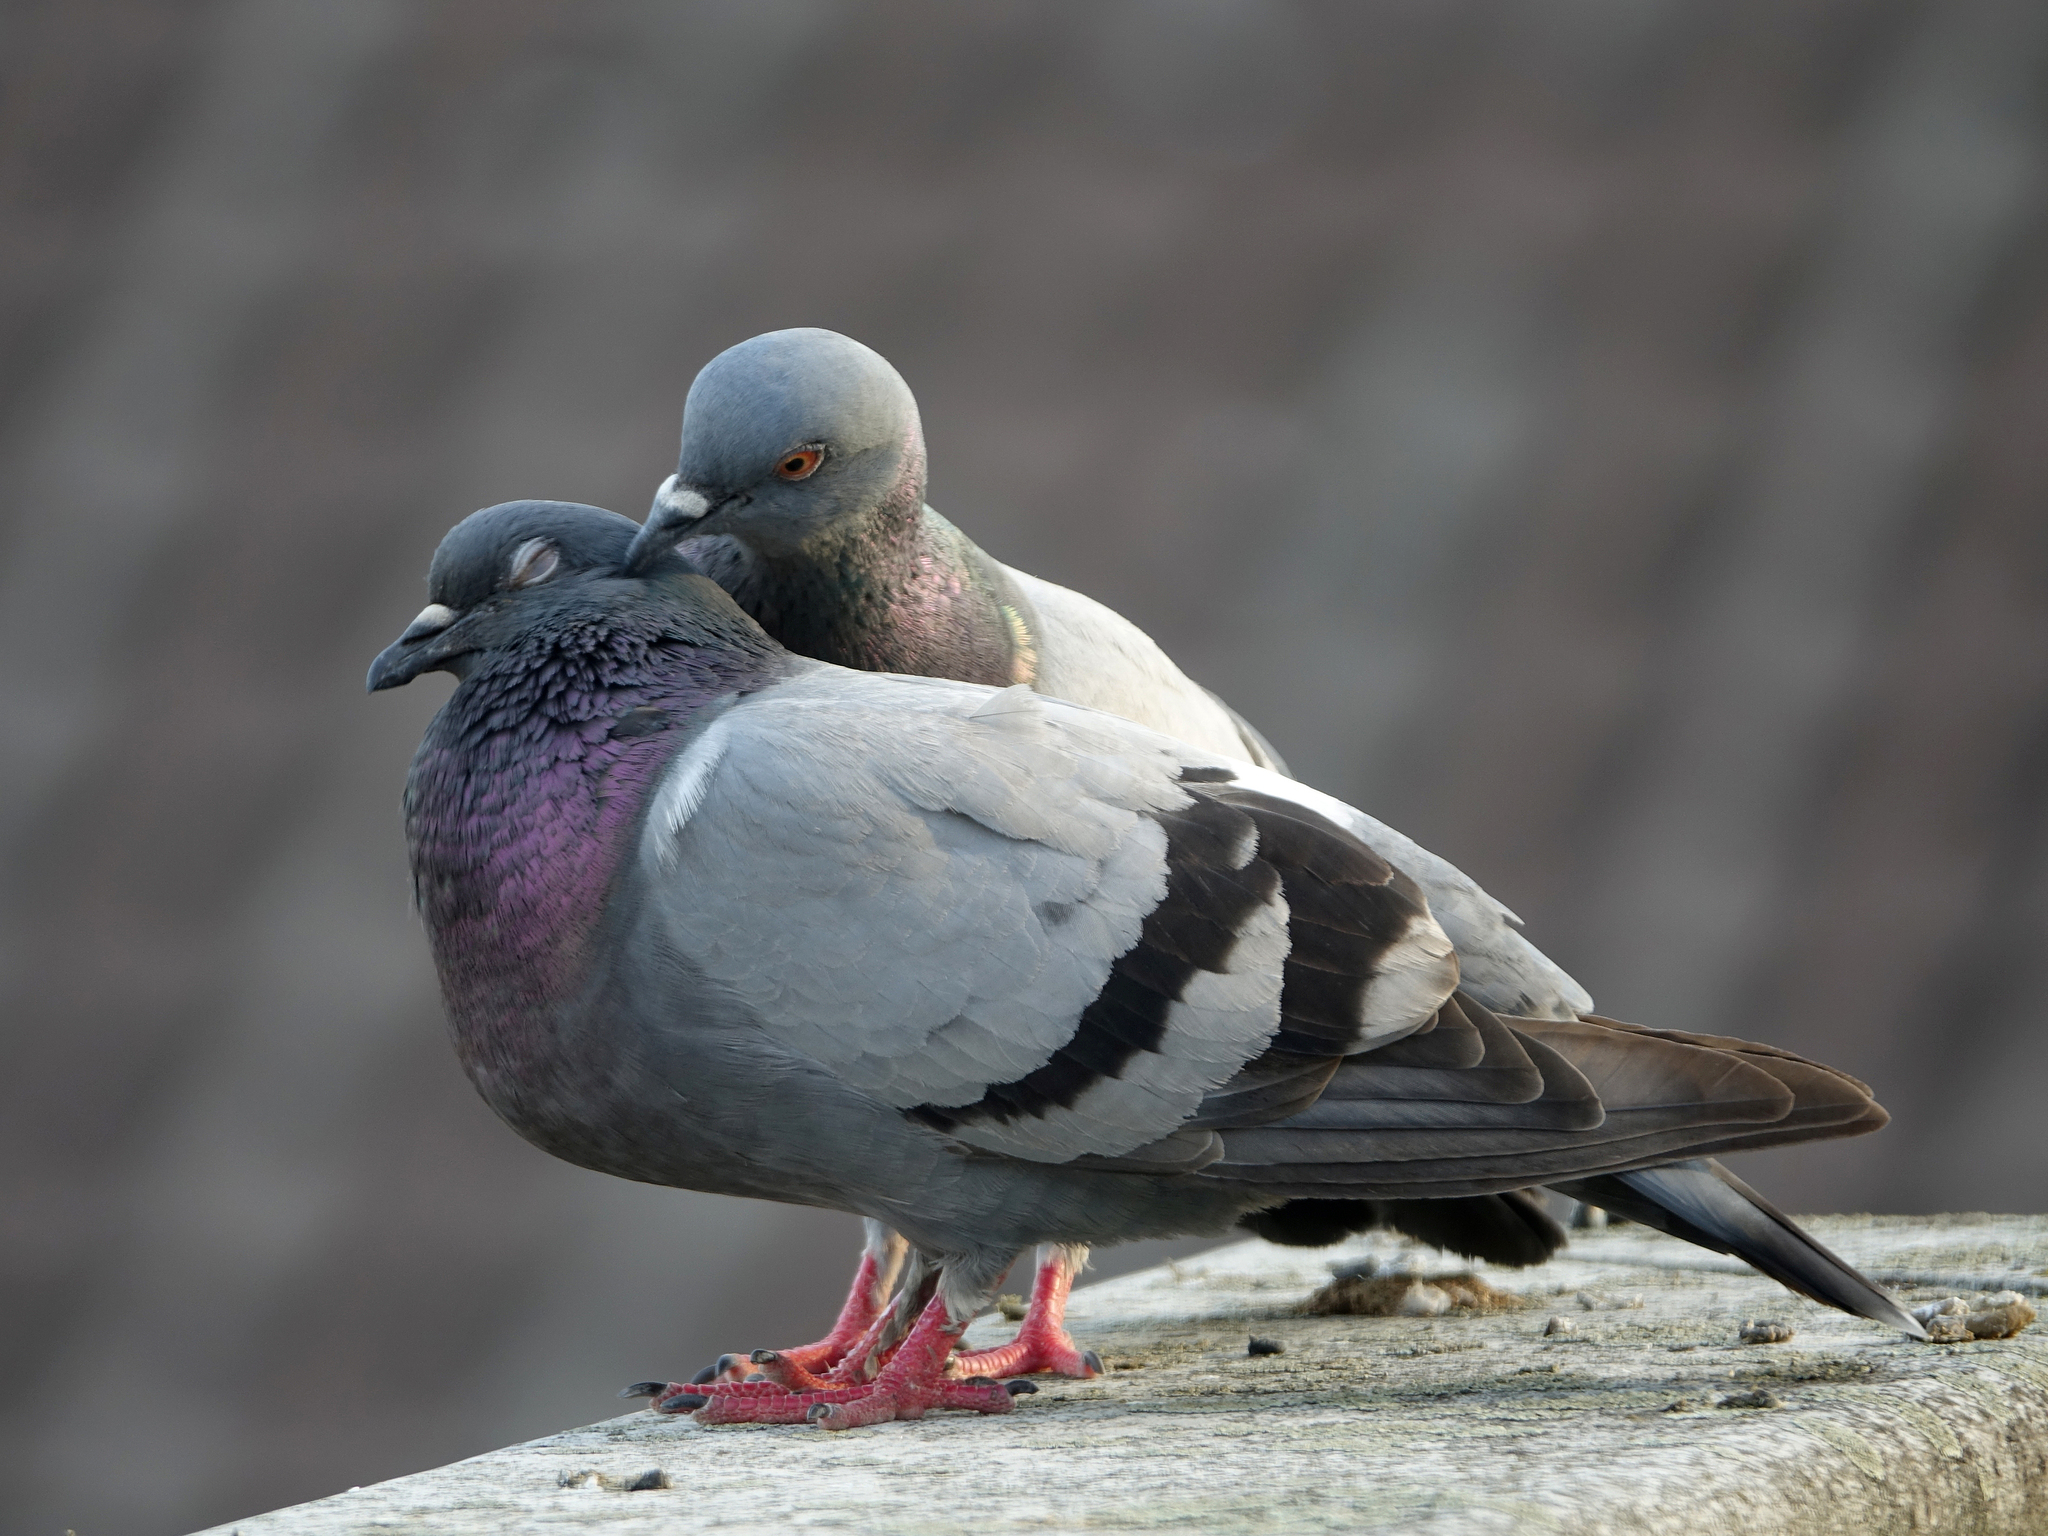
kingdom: Animalia
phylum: Chordata
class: Aves
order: Columbiformes
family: Columbidae
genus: Columba
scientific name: Columba livia
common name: Rock pigeon
